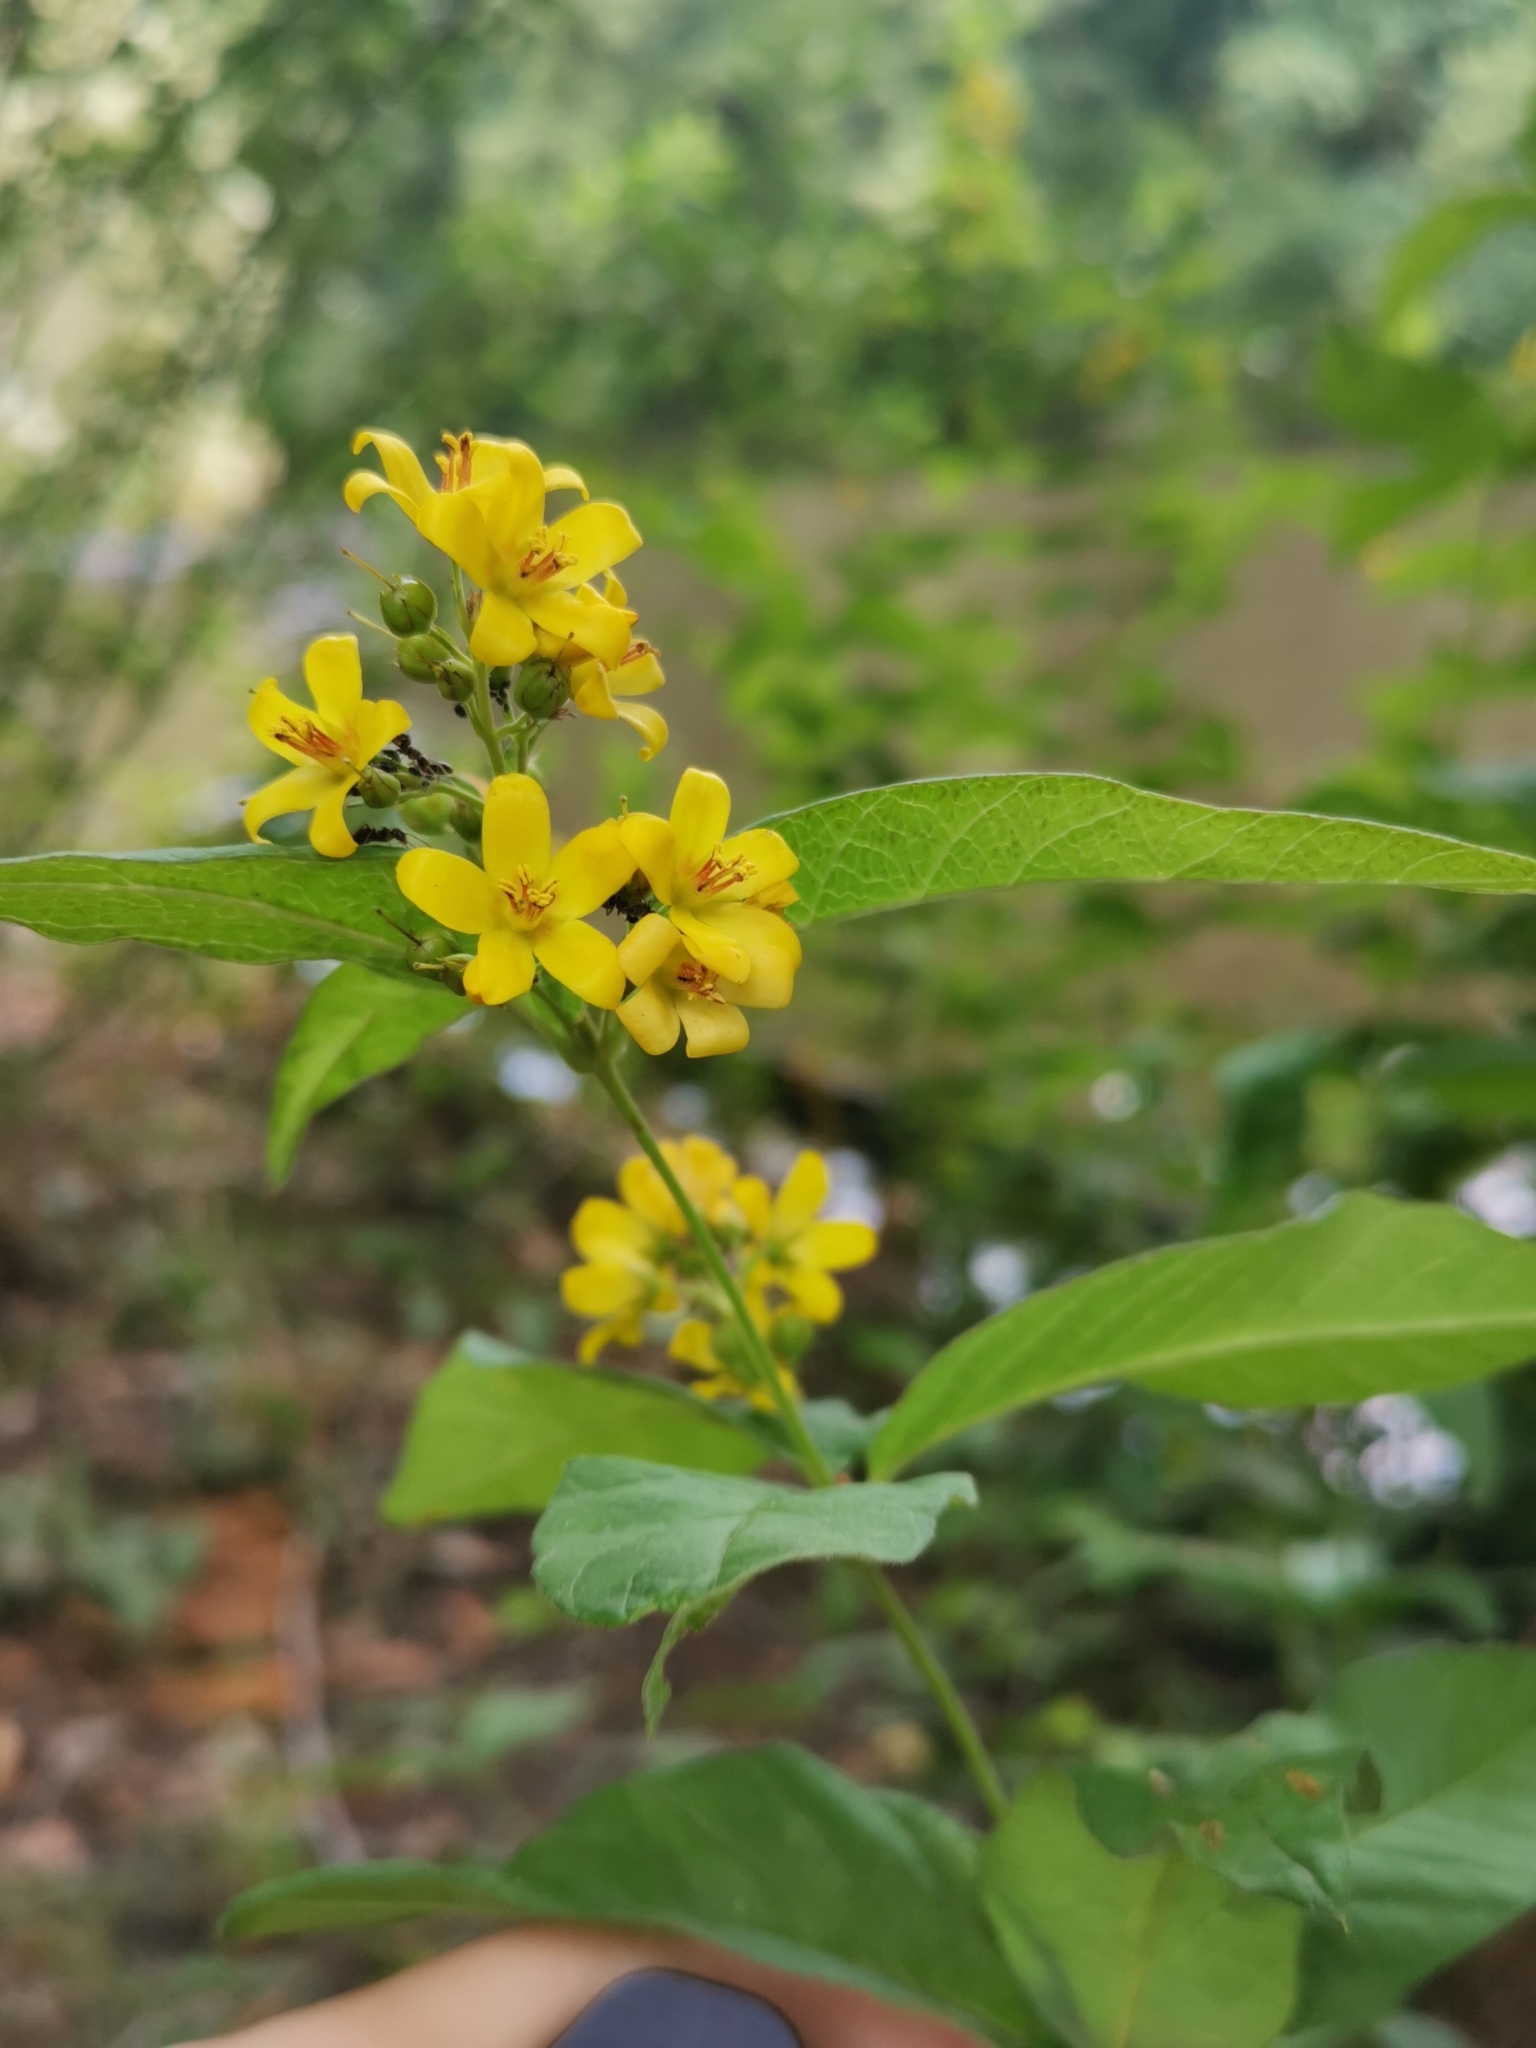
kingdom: Plantae
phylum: Tracheophyta
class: Magnoliopsida
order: Ericales
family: Primulaceae
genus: Lysimachia
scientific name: Lysimachia vulgaris
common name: Yellow loosestrife
